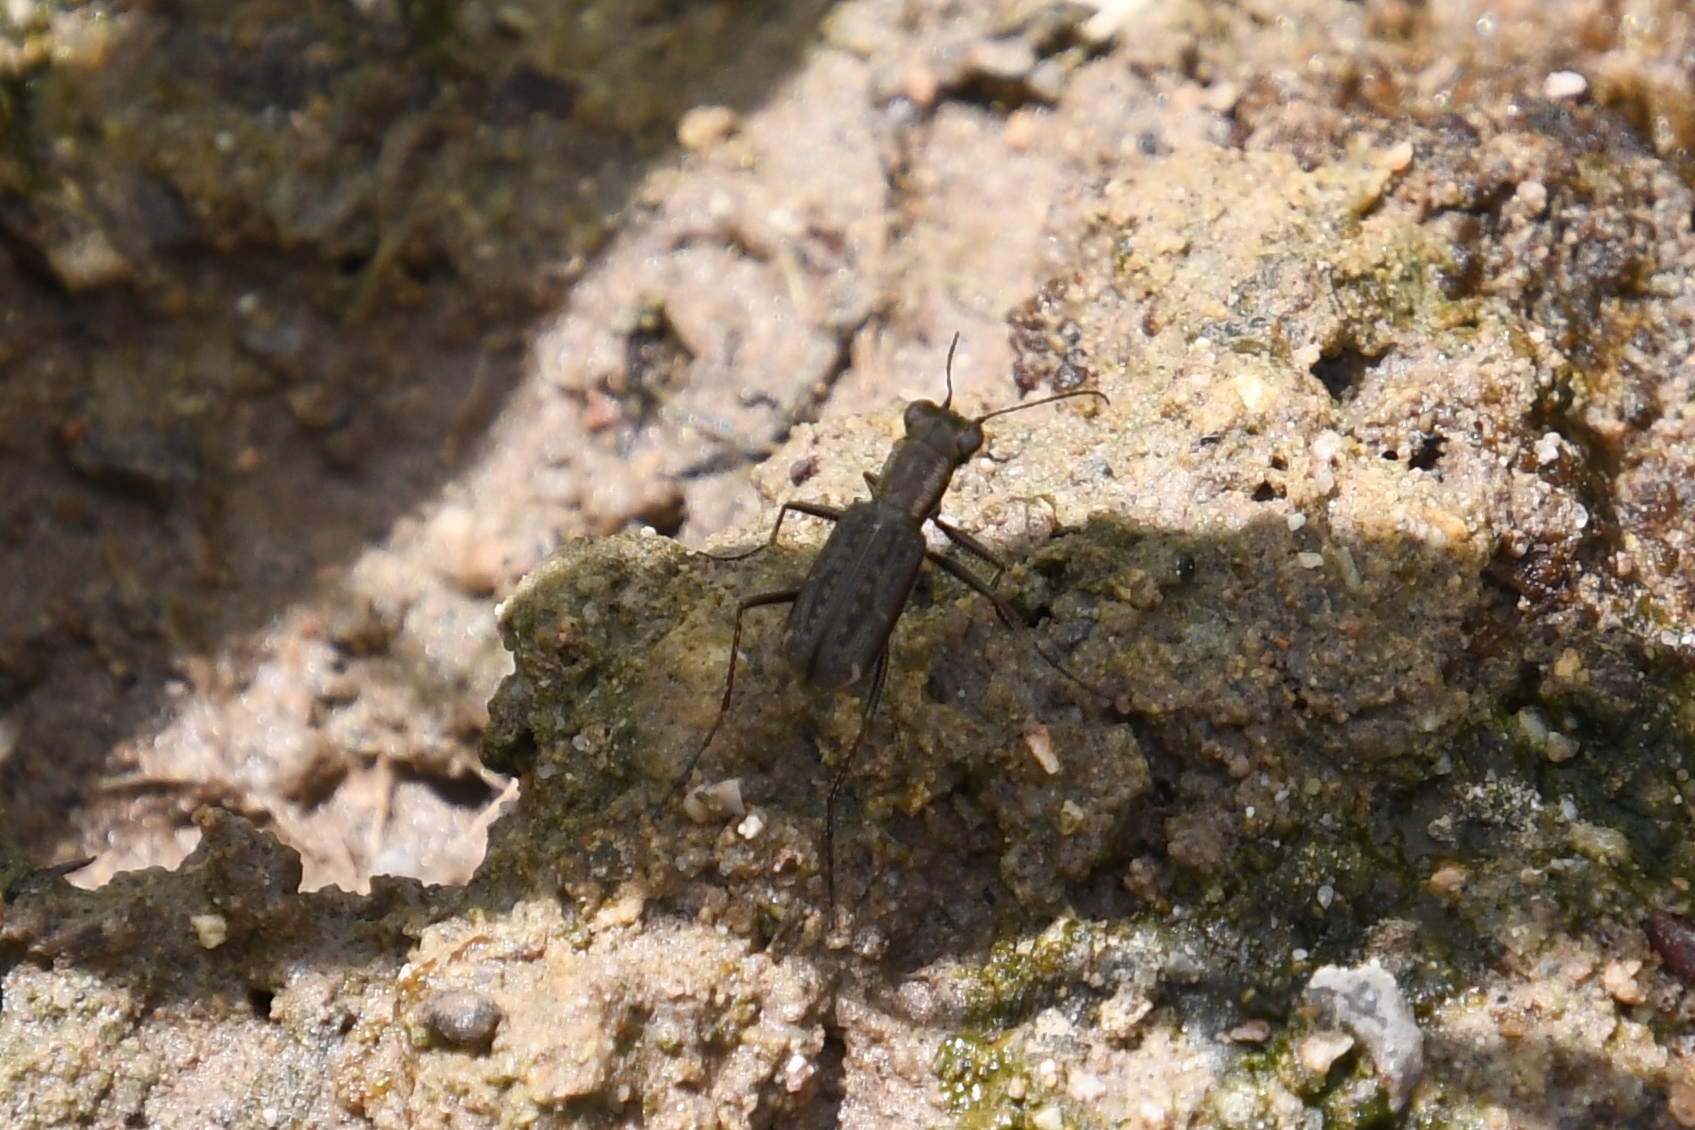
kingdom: Animalia
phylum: Arthropoda
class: Insecta
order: Coleoptera
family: Carabidae
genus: Brasiella
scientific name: Brasiella viridisticta
